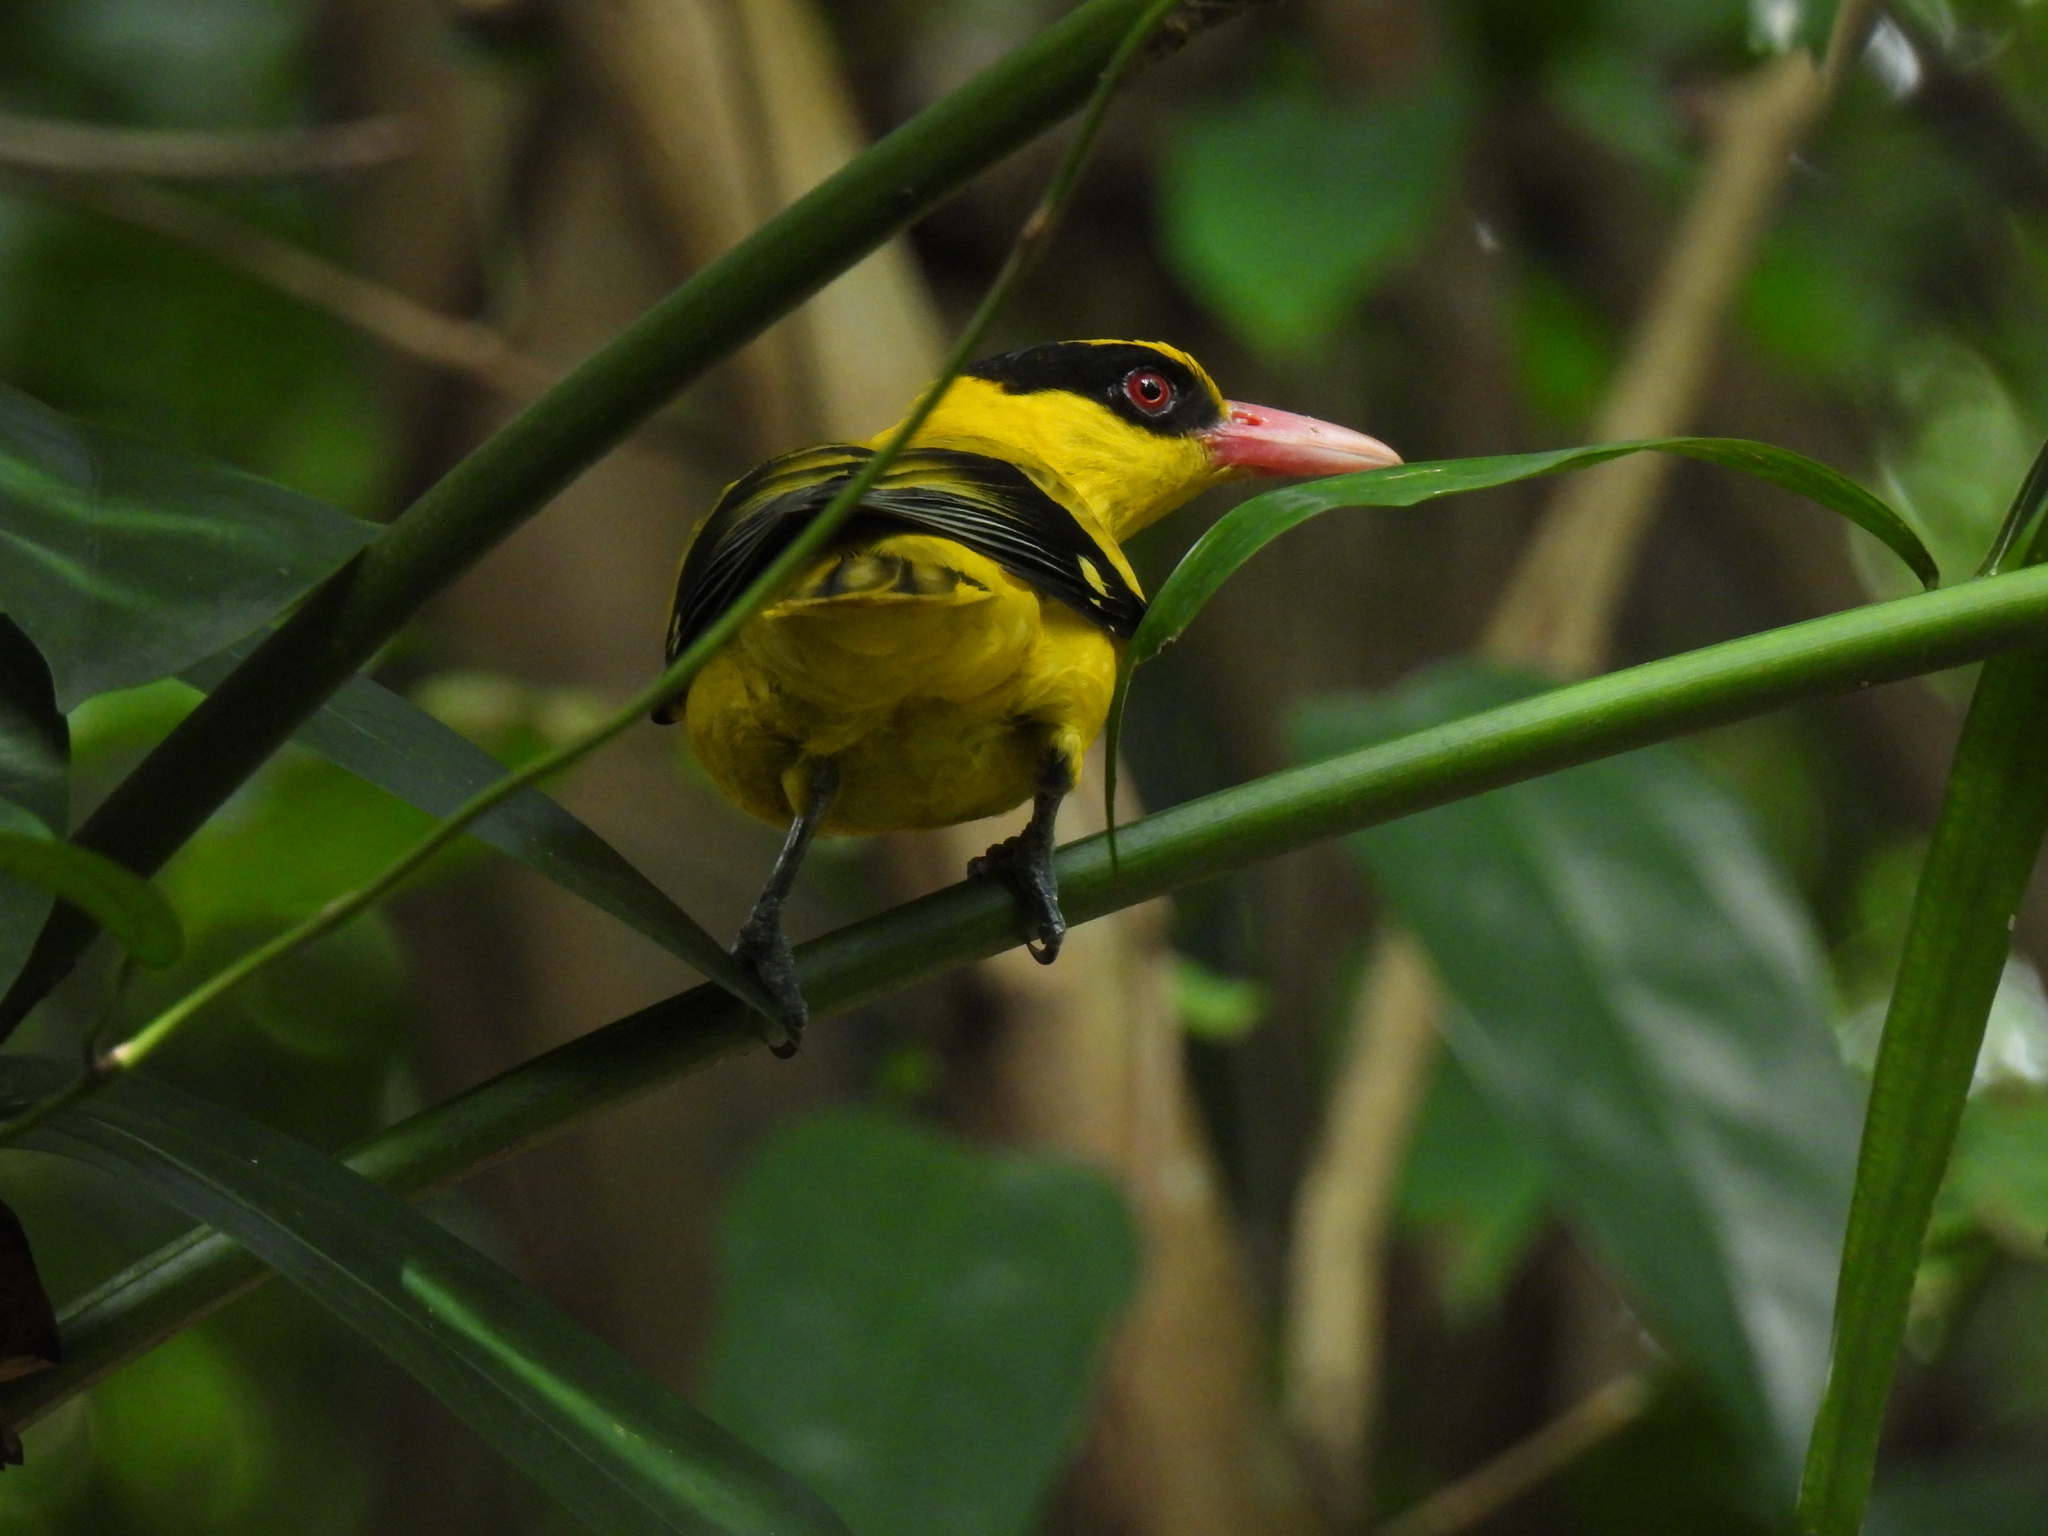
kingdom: Animalia
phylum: Chordata
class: Aves
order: Passeriformes
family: Oriolidae
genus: Oriolus
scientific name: Oriolus chinensis
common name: Black-naped oriole
